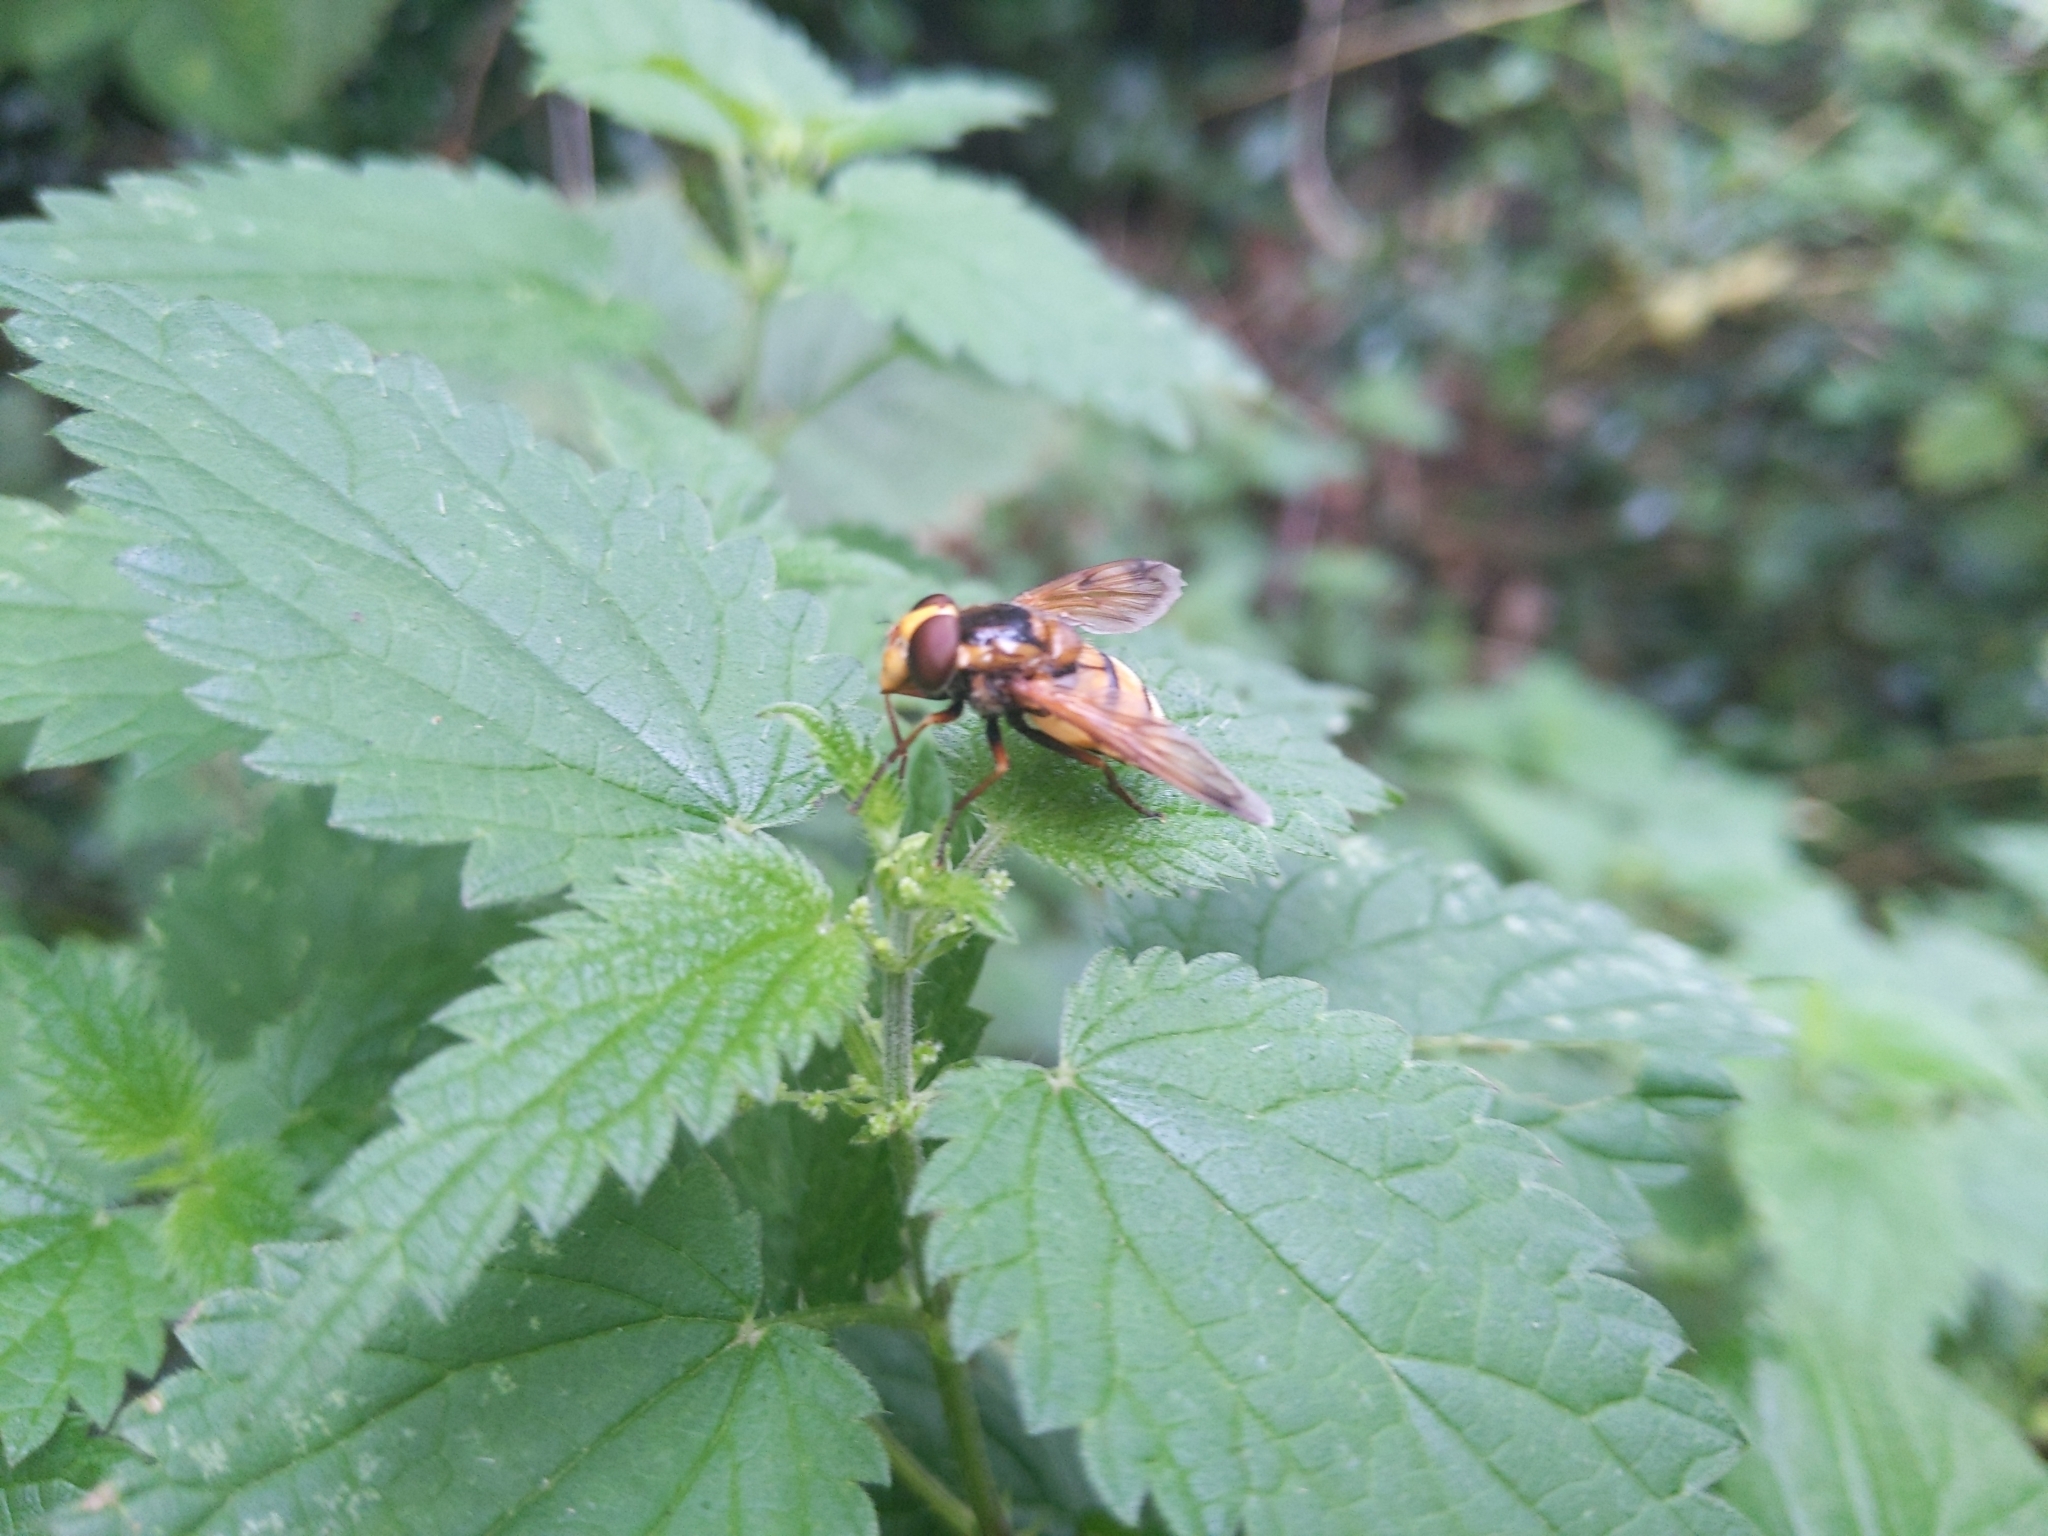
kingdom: Animalia
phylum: Arthropoda
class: Insecta
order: Diptera
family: Syrphidae
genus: Volucella
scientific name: Volucella inanis
